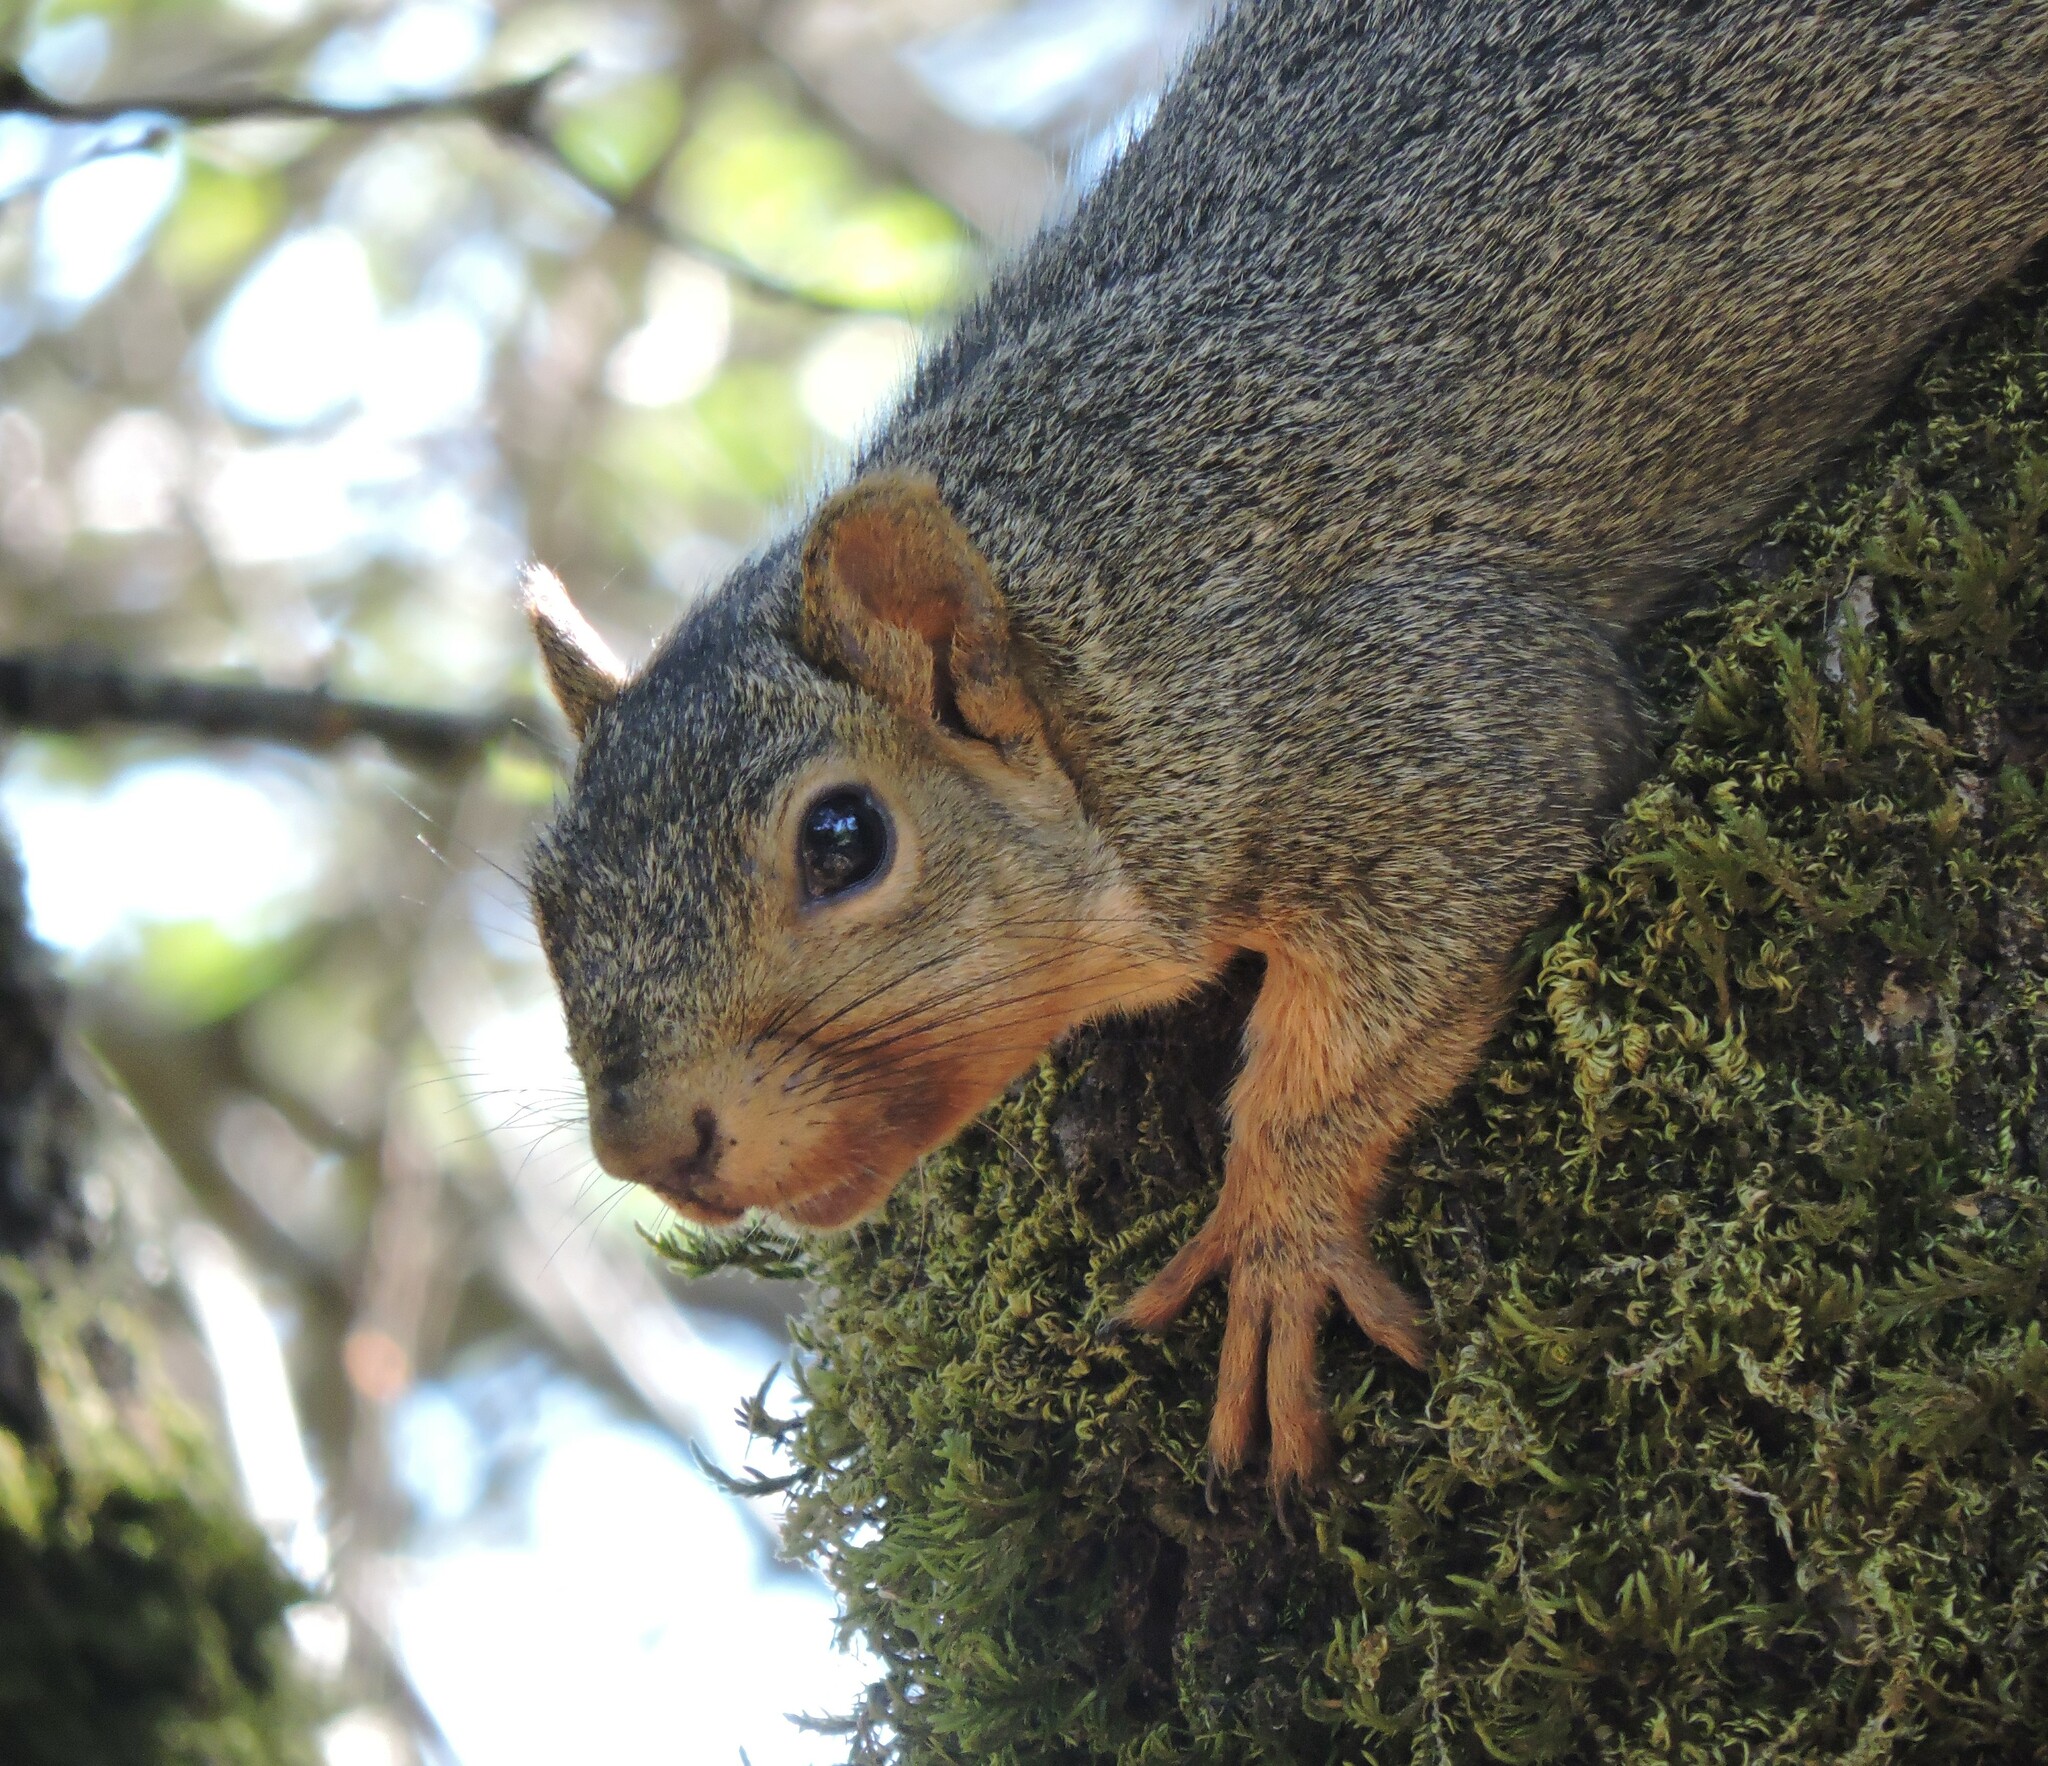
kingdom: Animalia
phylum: Chordata
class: Mammalia
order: Rodentia
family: Sciuridae
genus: Sciurus
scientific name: Sciurus niger
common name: Fox squirrel
